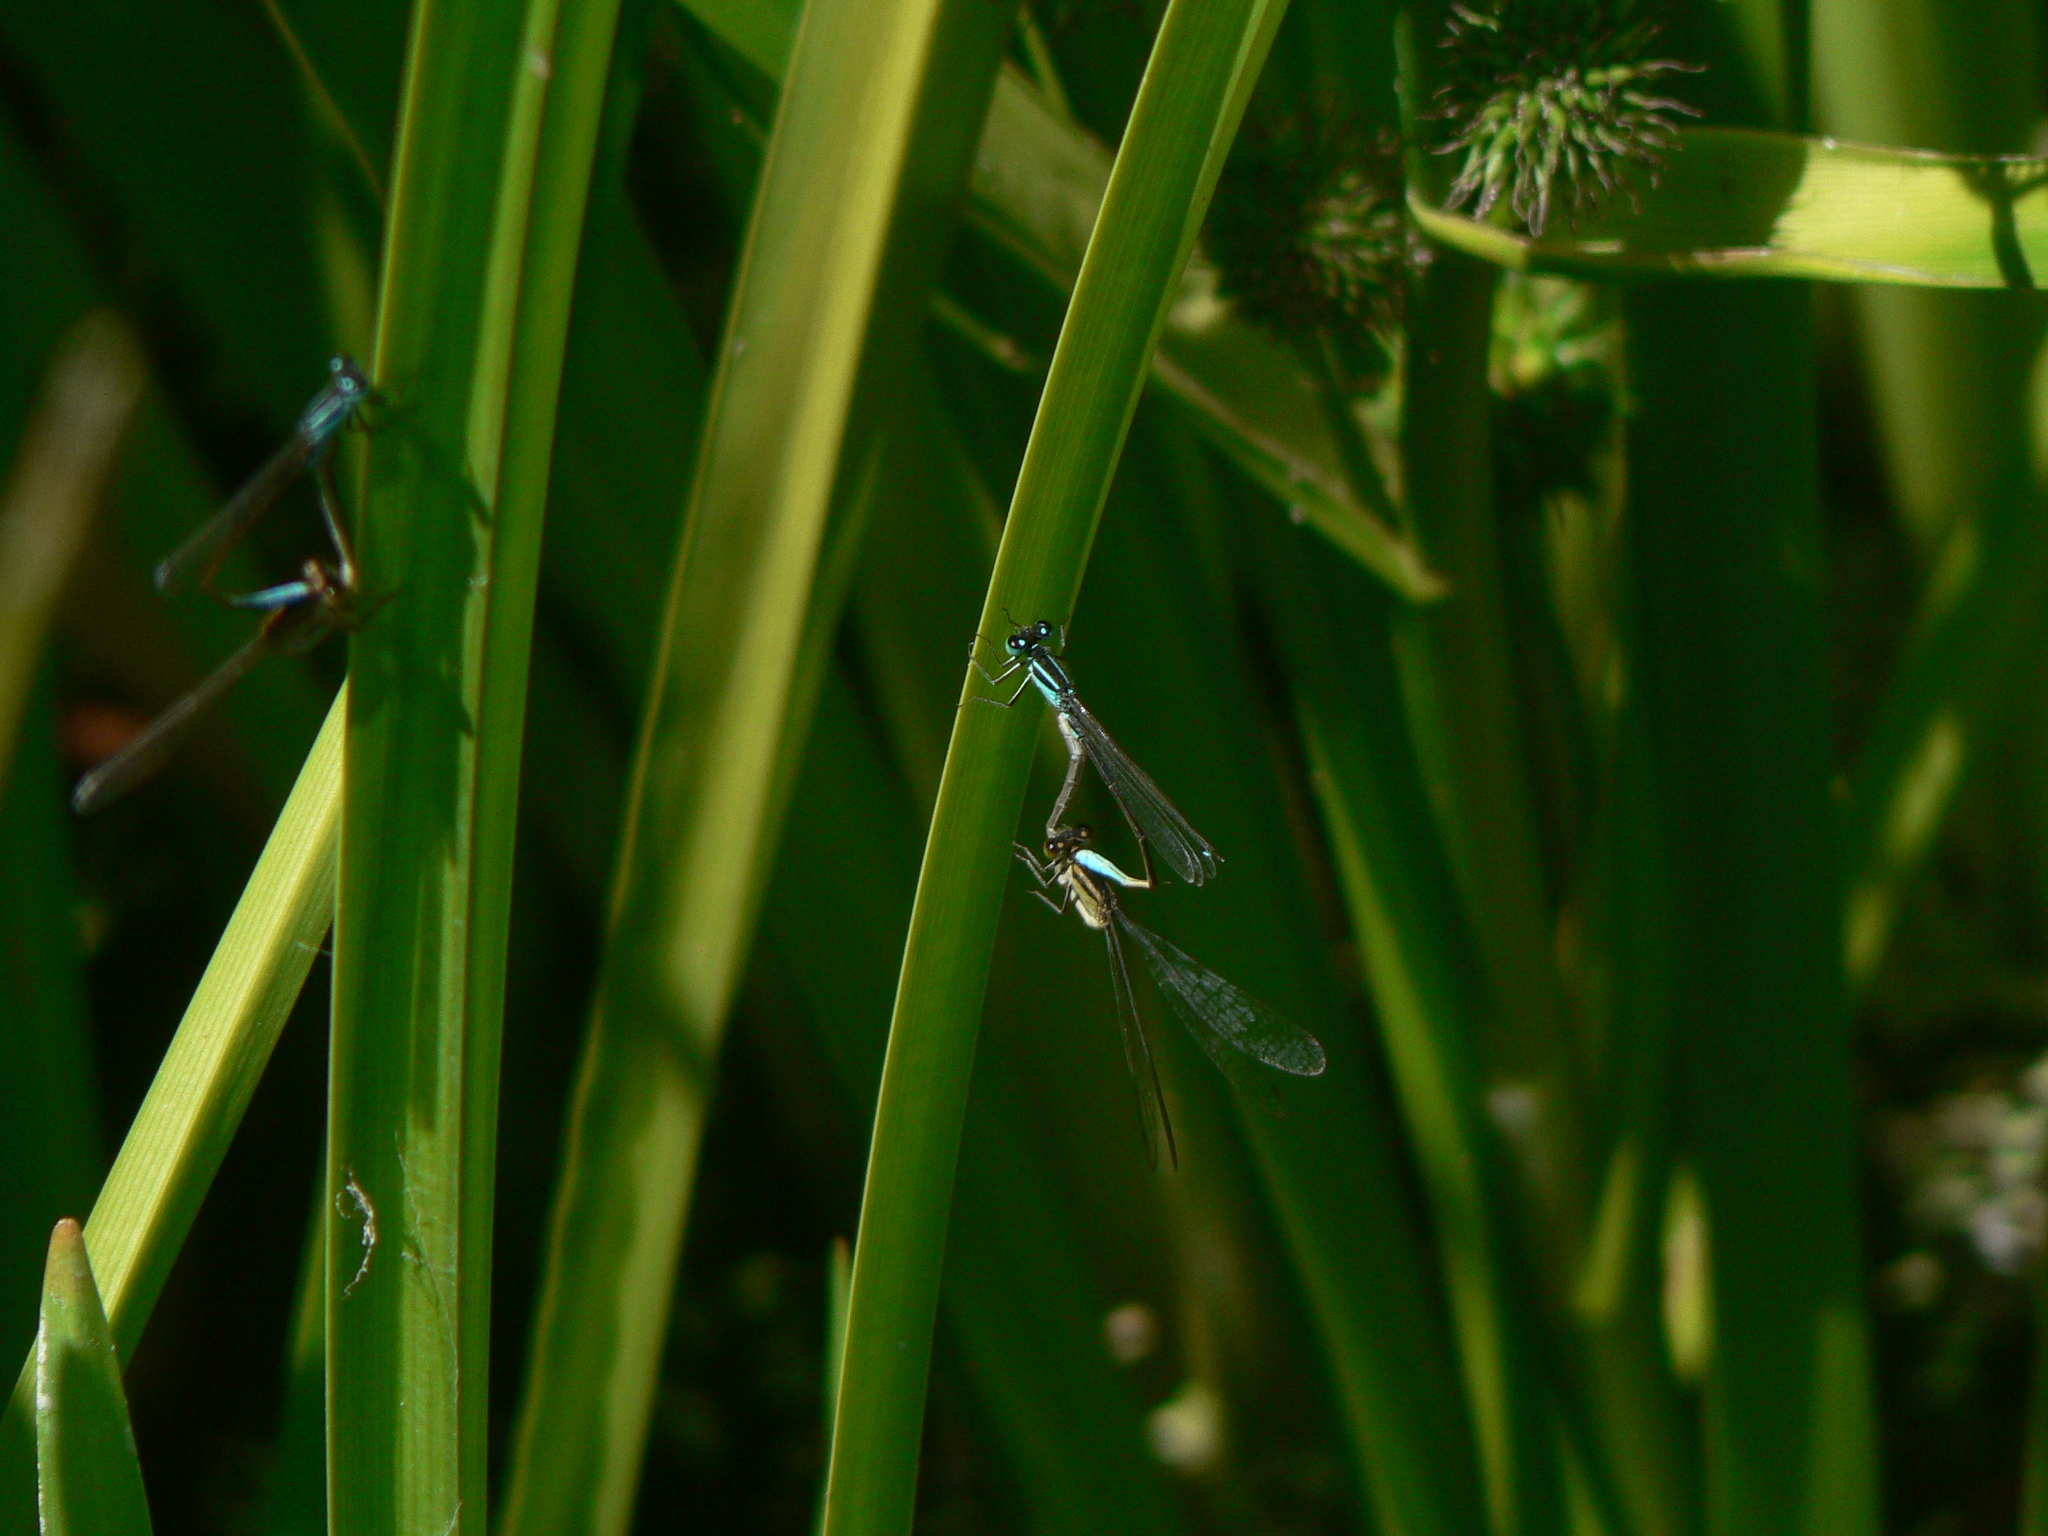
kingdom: Animalia
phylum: Arthropoda
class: Insecta
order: Odonata
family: Coenagrionidae
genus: Ischnura
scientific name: Ischnura elegans
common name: Blue-tailed damselfly
